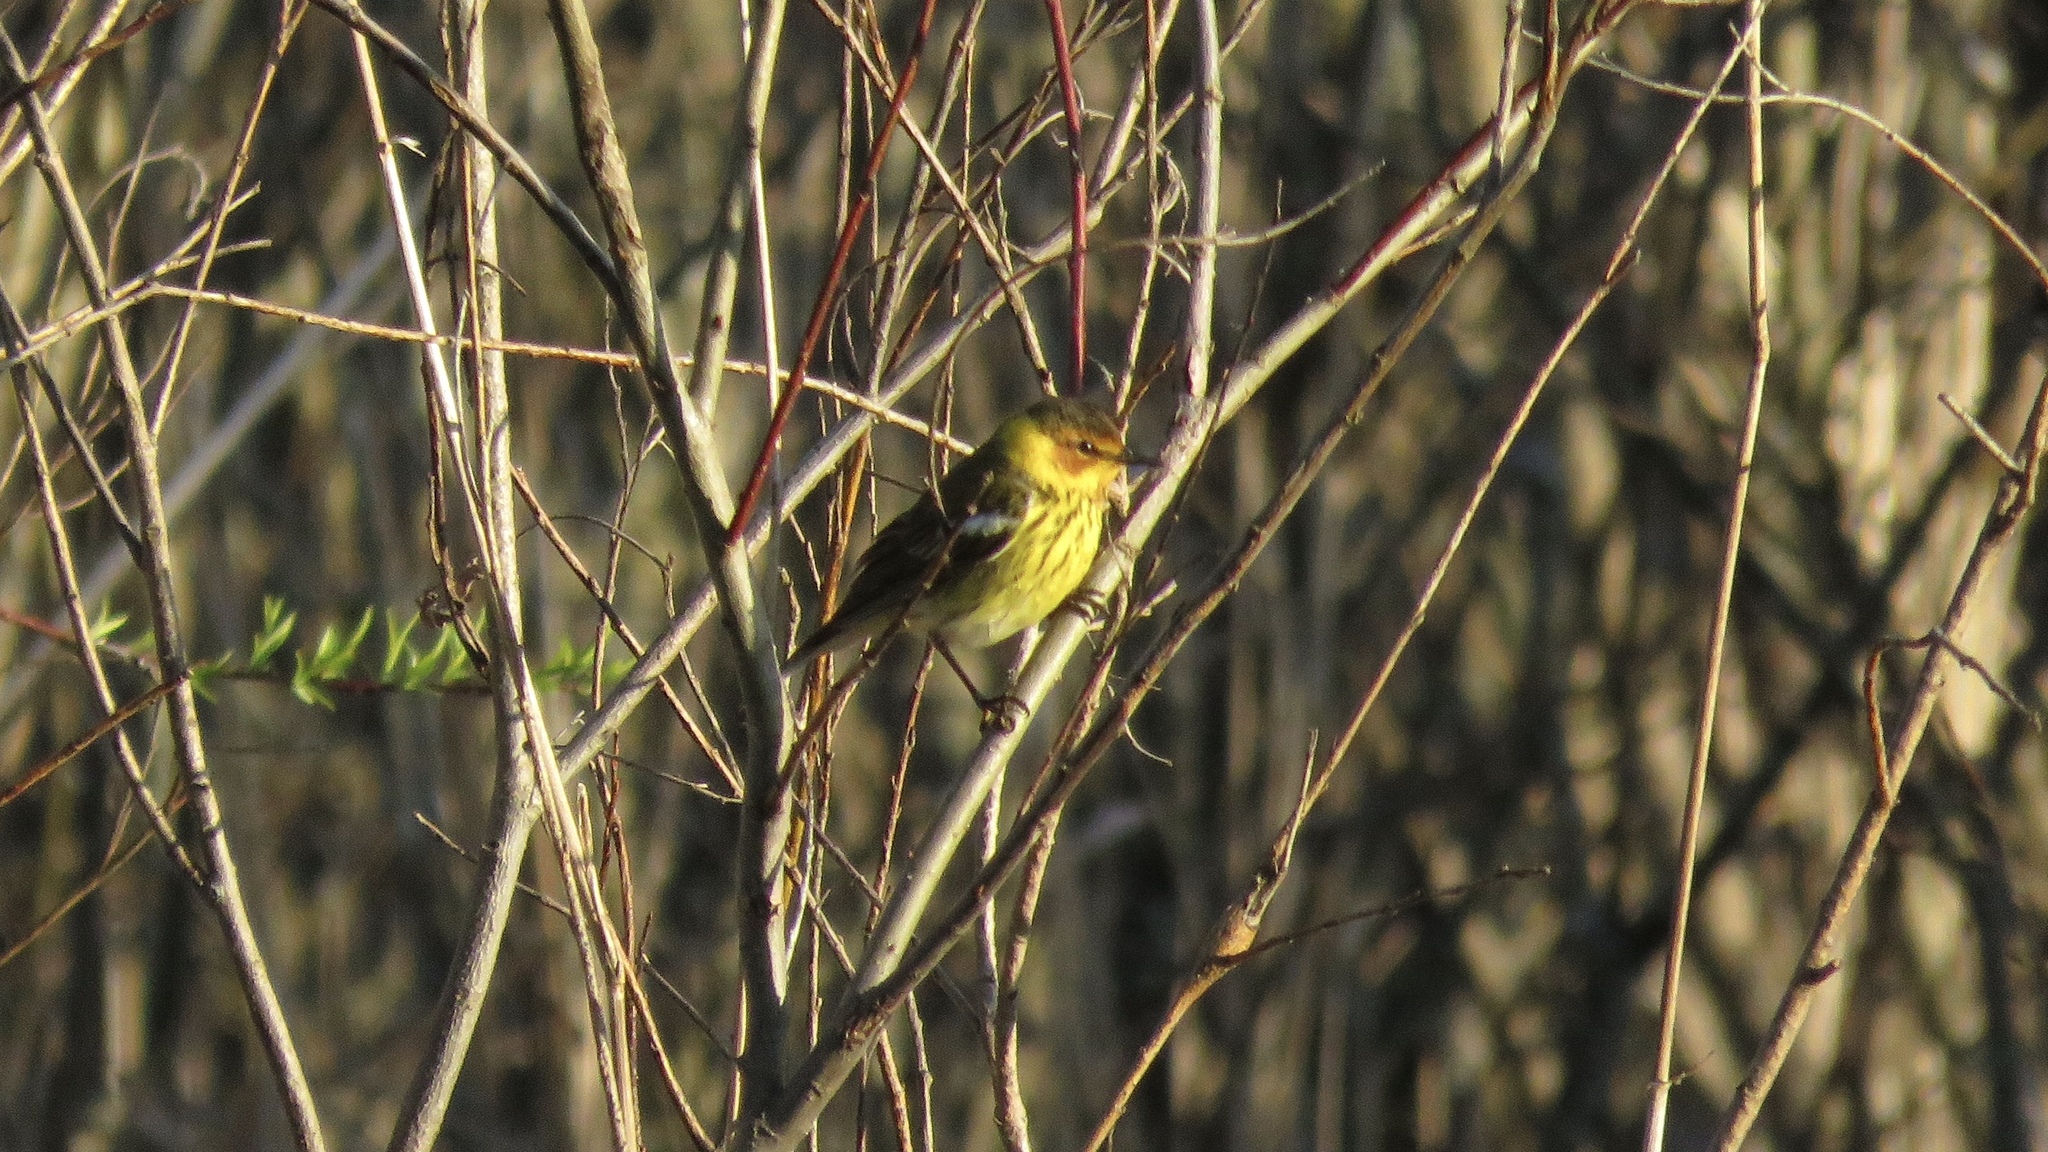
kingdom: Animalia
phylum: Chordata
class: Aves
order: Passeriformes
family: Parulidae
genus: Setophaga
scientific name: Setophaga tigrina
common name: Cape may warbler
